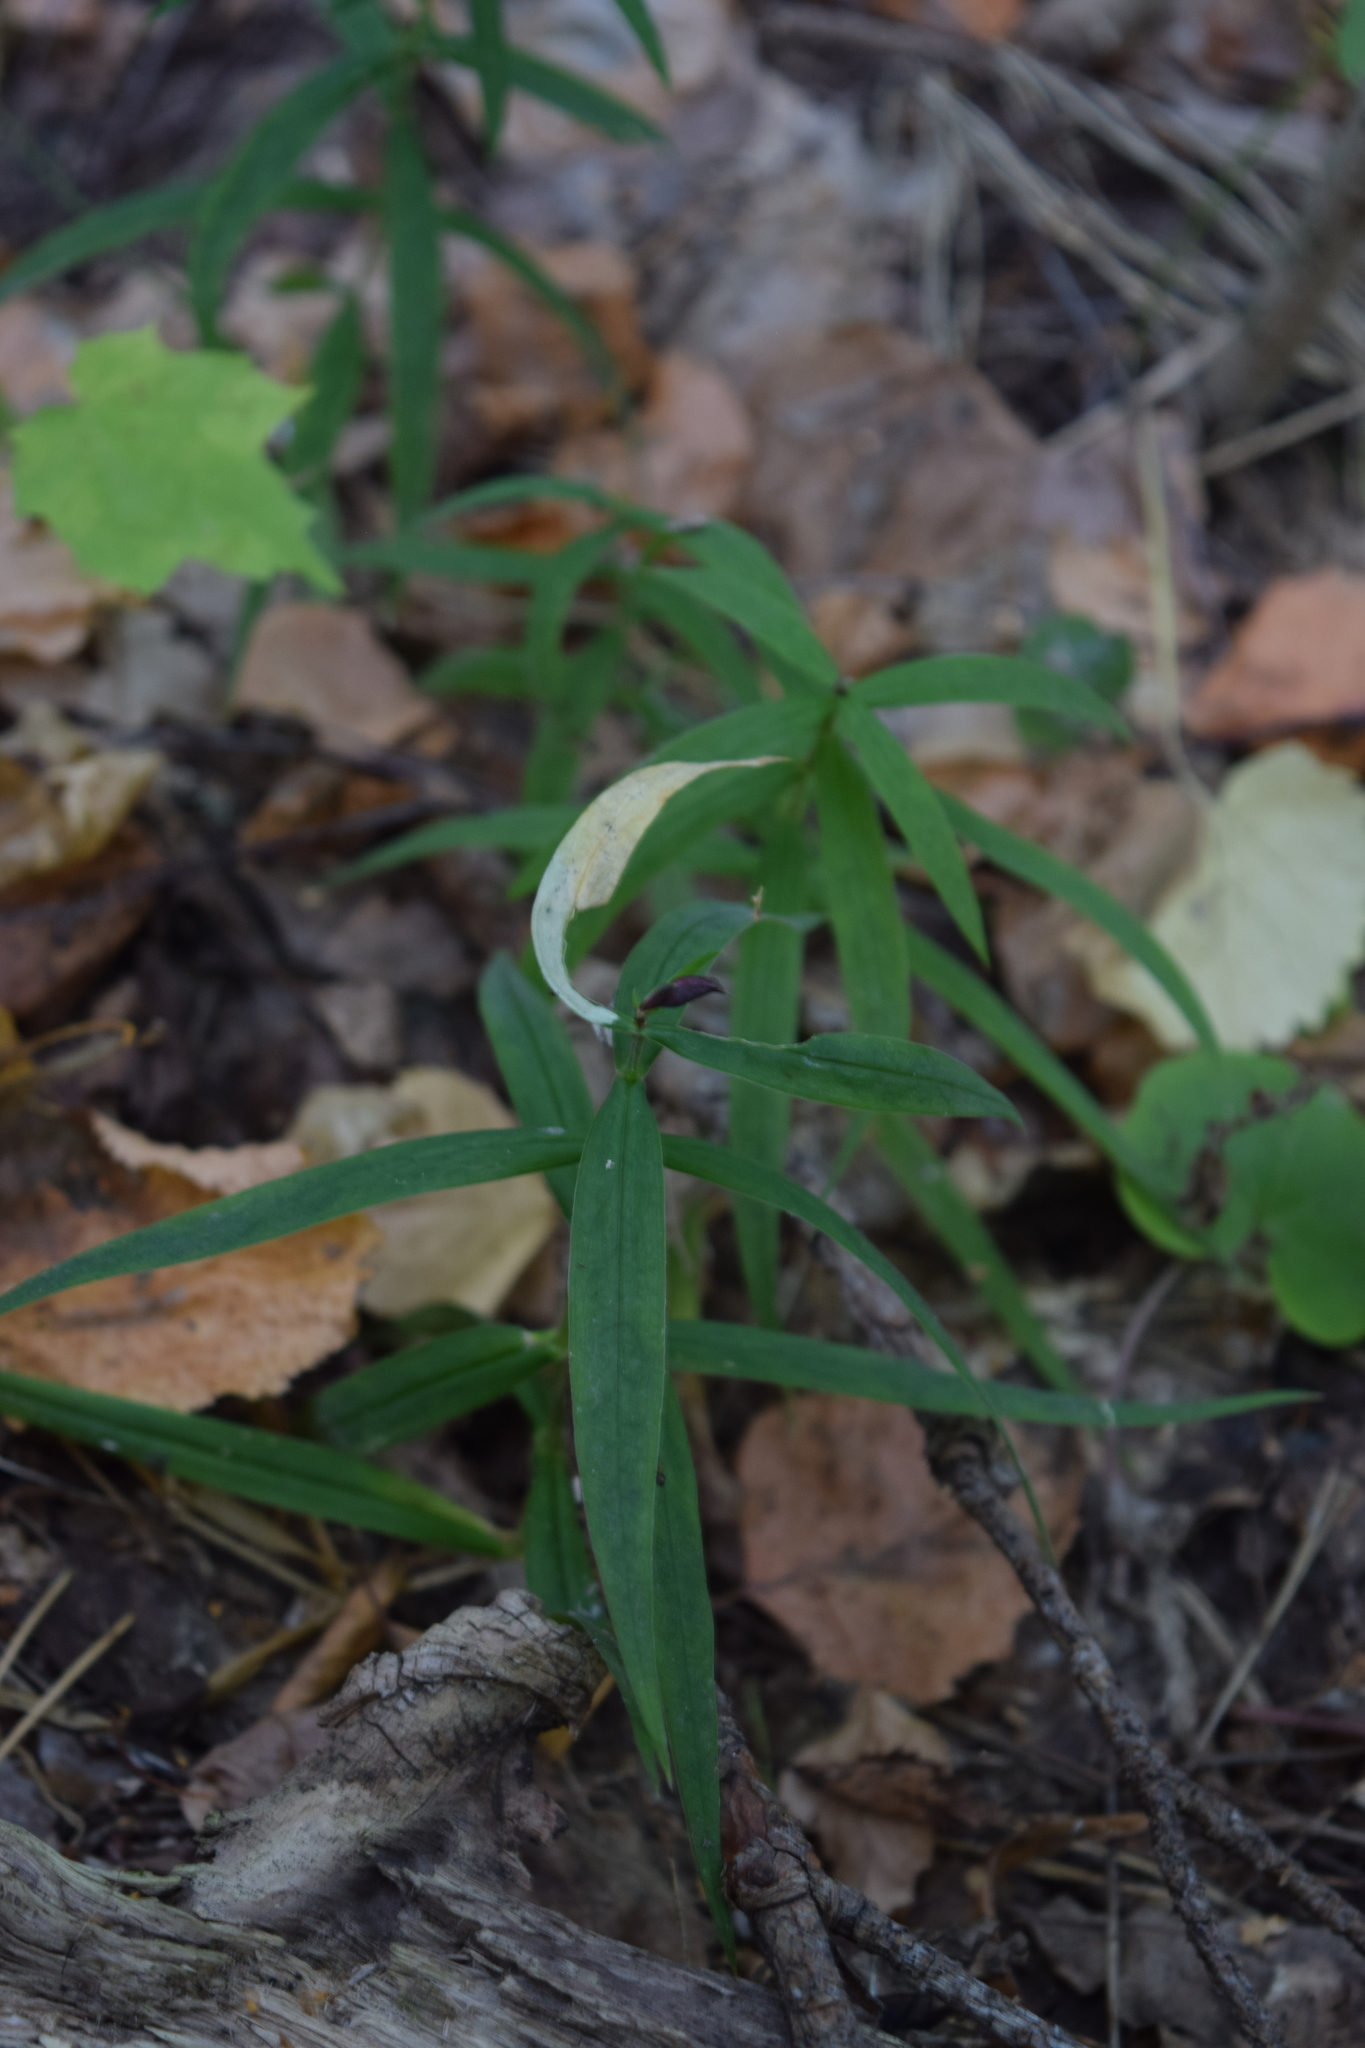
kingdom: Plantae
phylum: Tracheophyta
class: Magnoliopsida
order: Caryophyllales
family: Caryophyllaceae
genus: Rabelera
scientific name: Rabelera holostea
